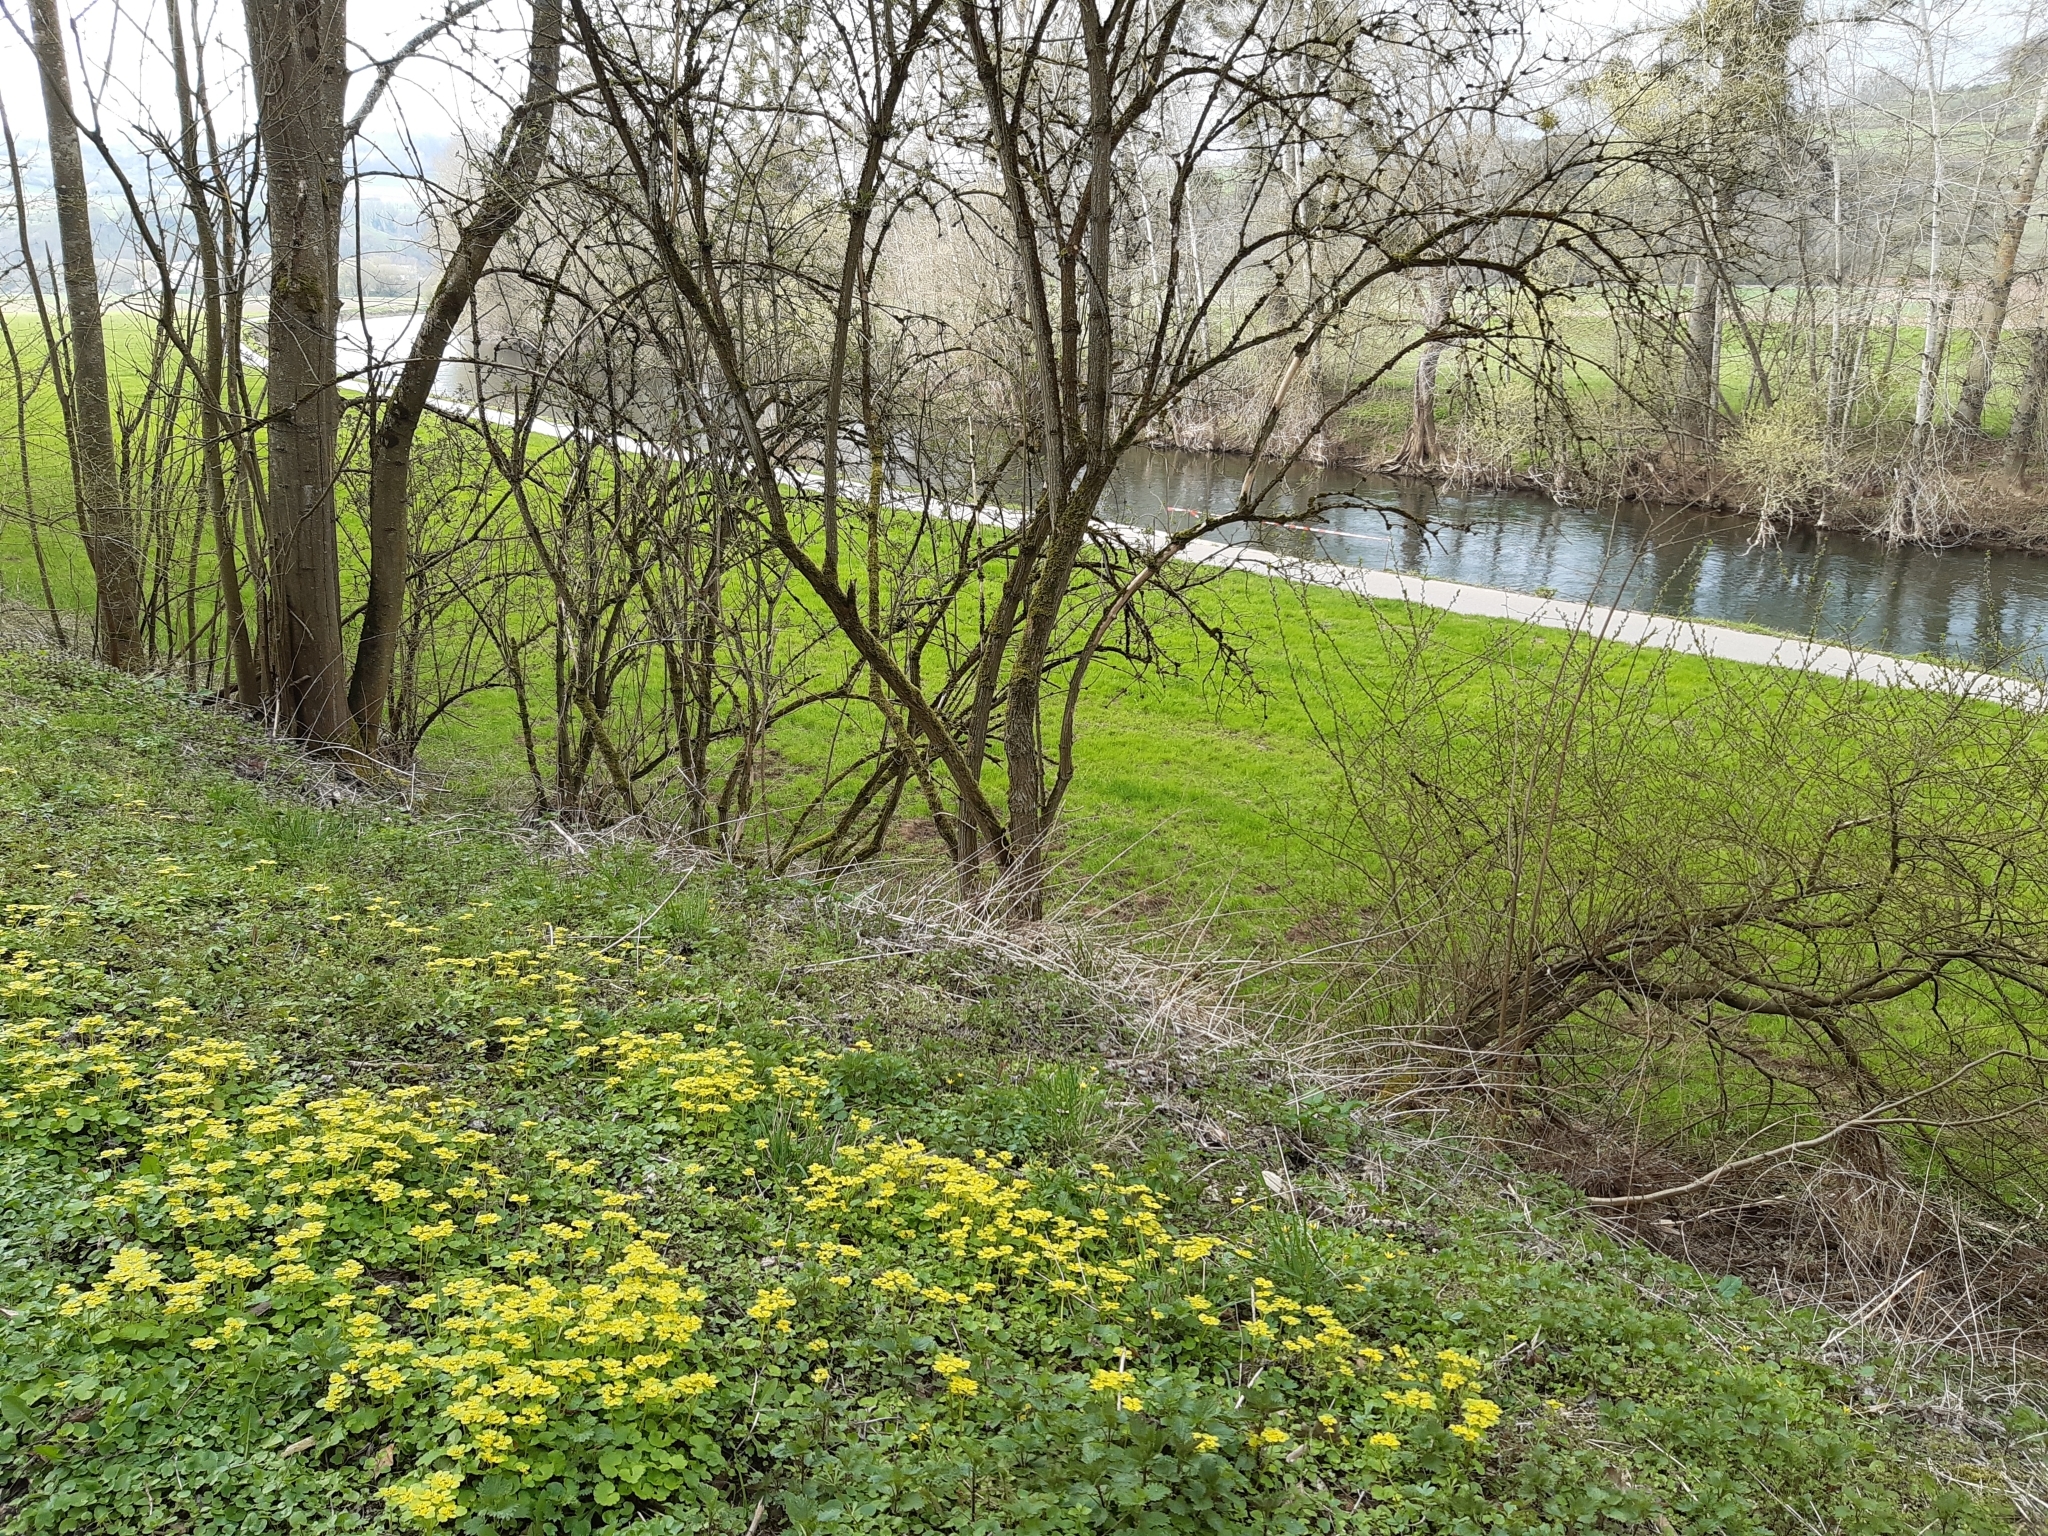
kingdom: Plantae
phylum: Tracheophyta
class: Magnoliopsida
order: Saxifragales
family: Saxifragaceae
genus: Chrysosplenium
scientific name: Chrysosplenium alternifolium
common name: Alternate-leaved golden-saxifrage
